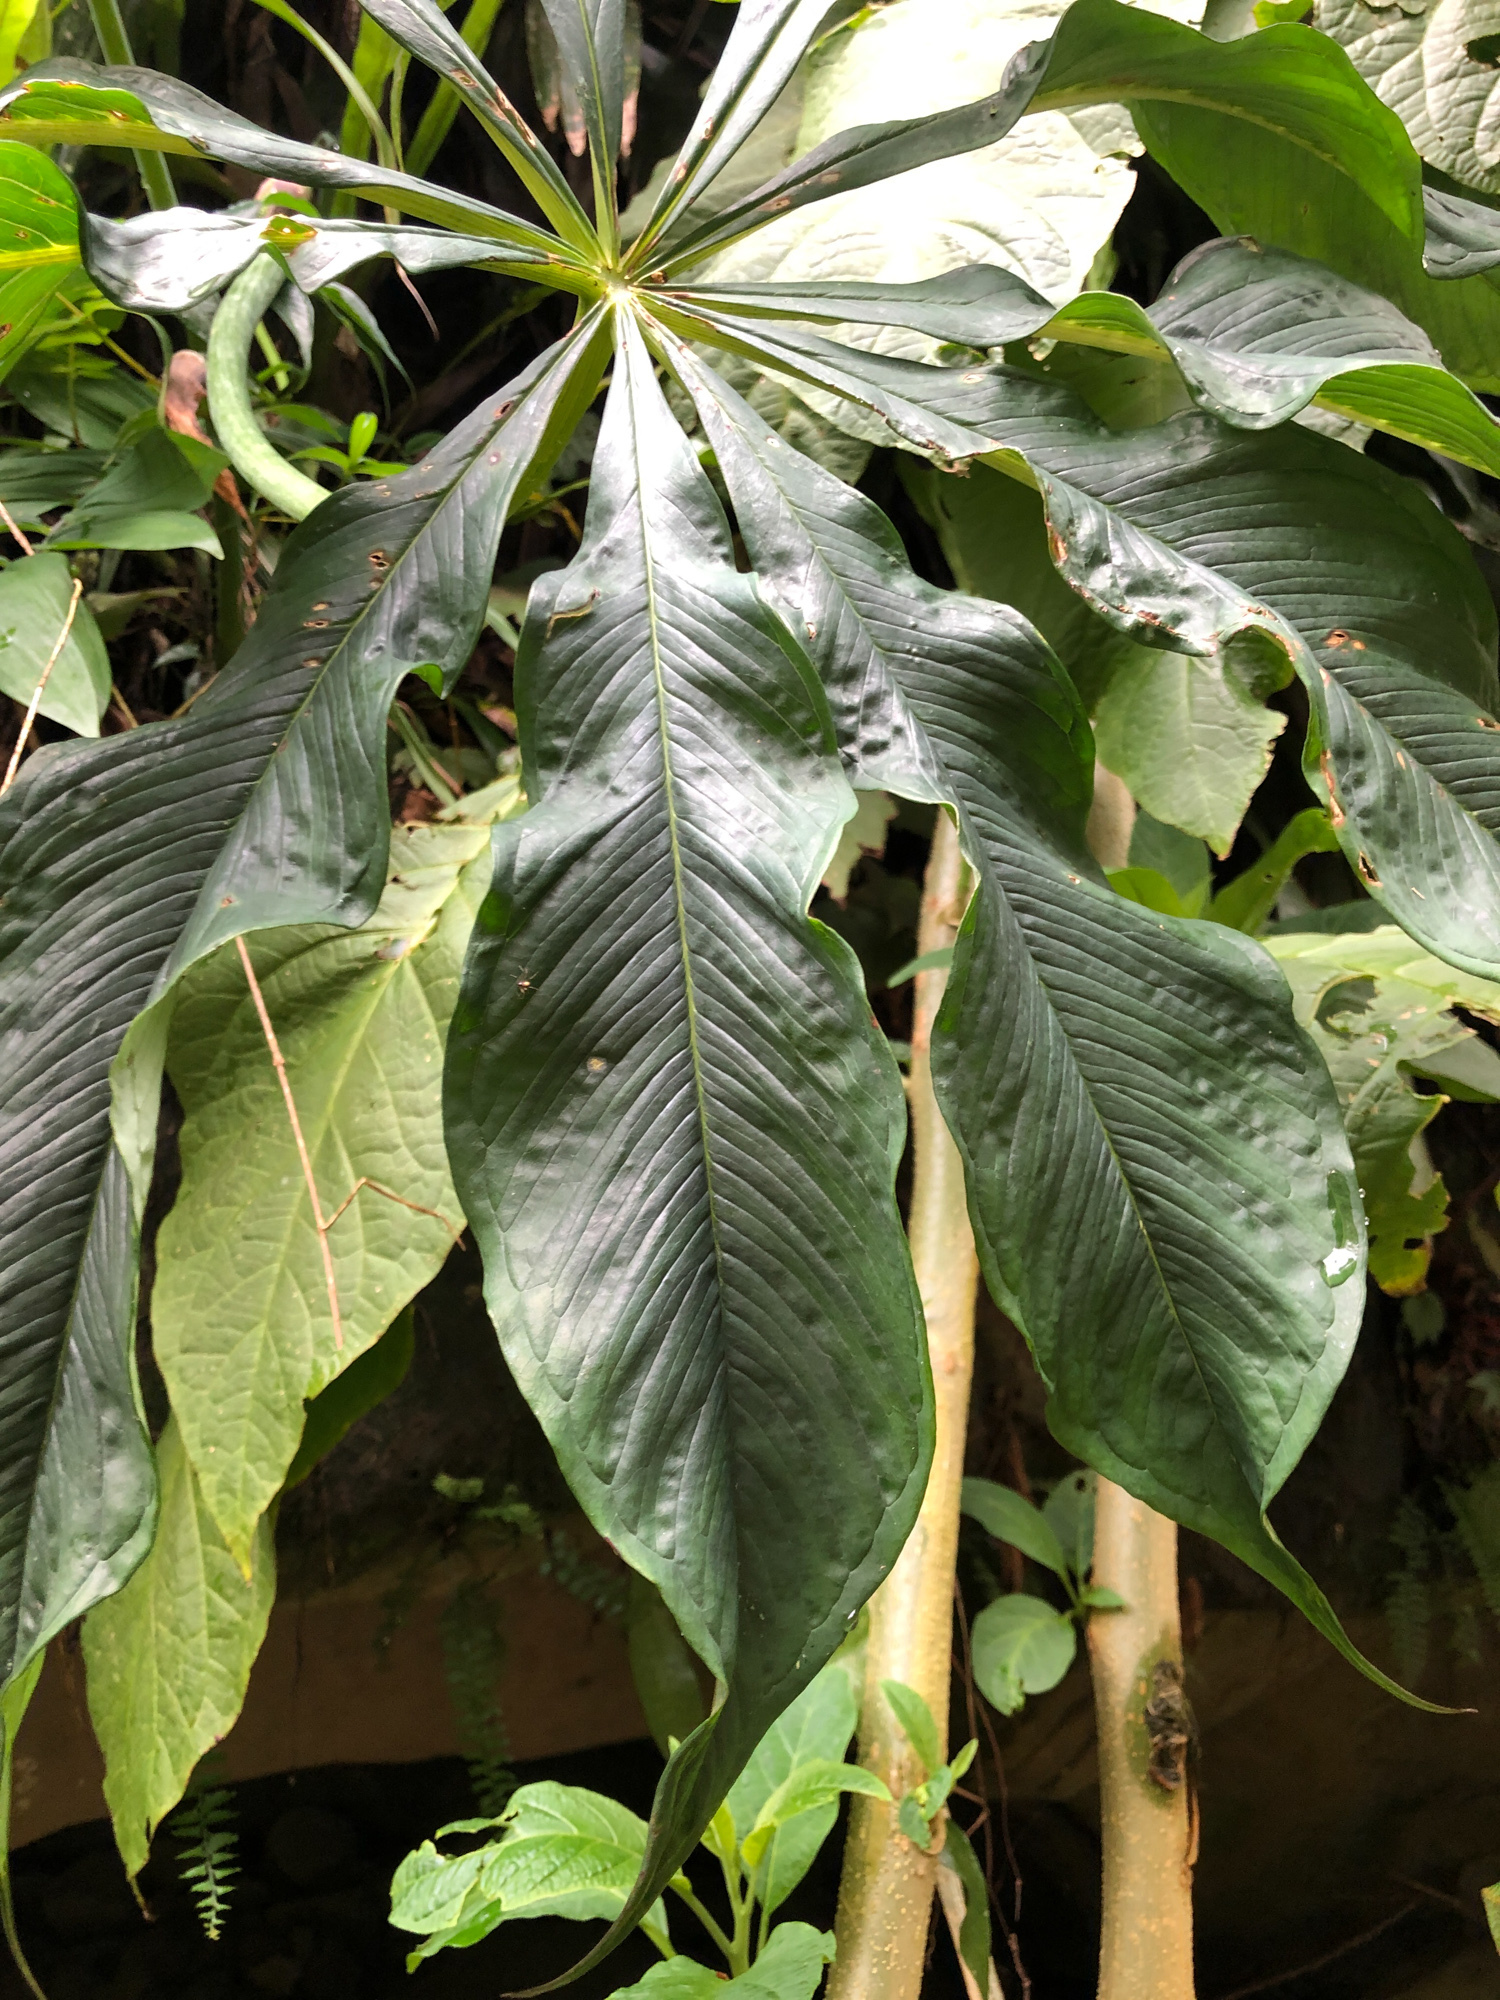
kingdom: Plantae
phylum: Tracheophyta
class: Liliopsida
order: Alismatales
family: Araceae
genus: Arisaema
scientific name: Arisaema formosanum
